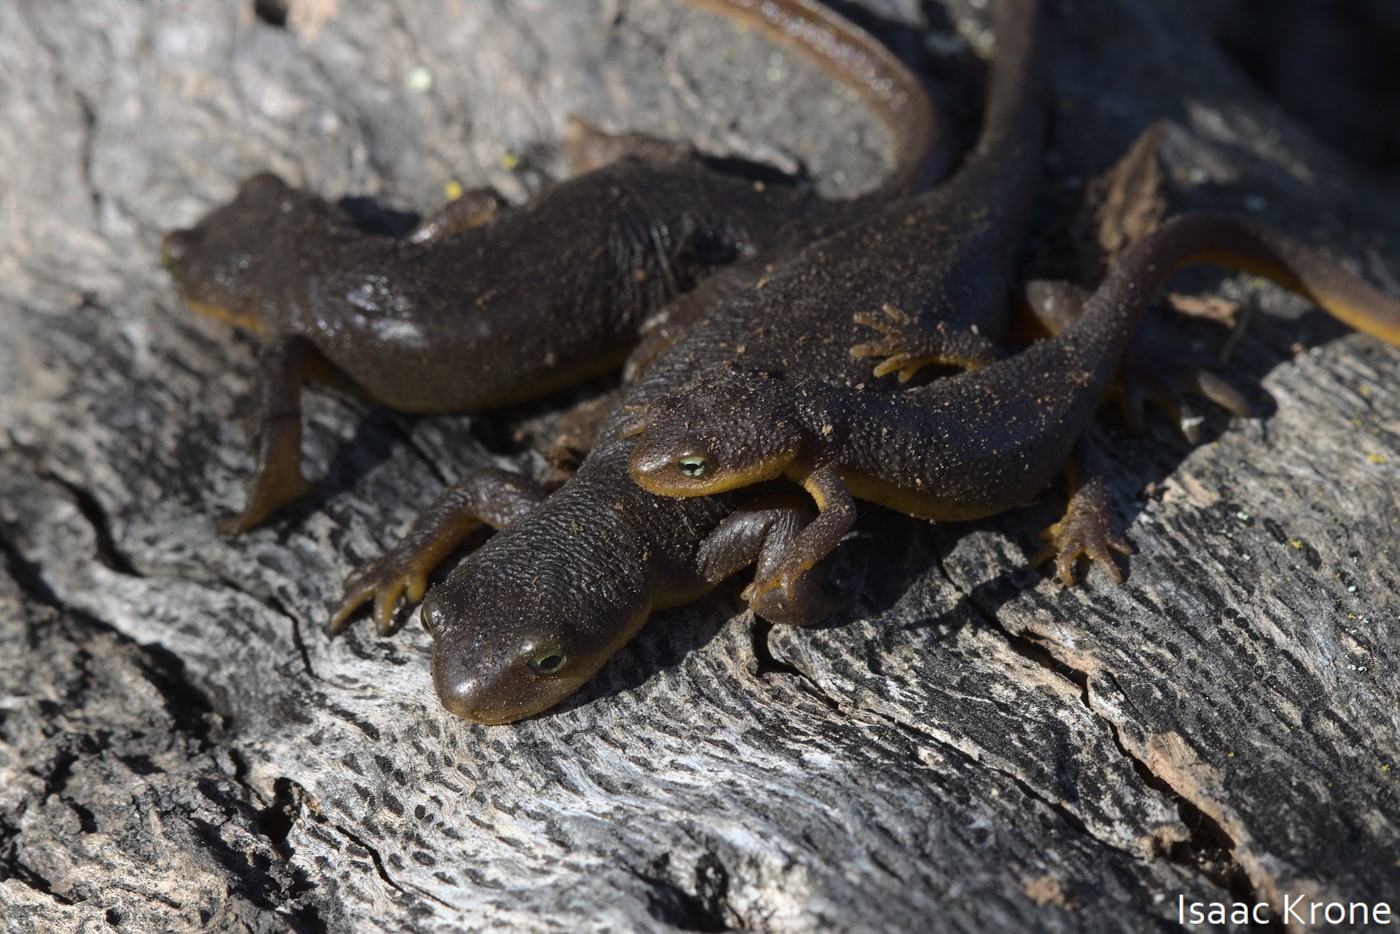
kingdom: Animalia
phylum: Chordata
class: Amphibia
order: Caudata
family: Salamandridae
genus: Taricha
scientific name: Taricha torosa
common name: California newt
